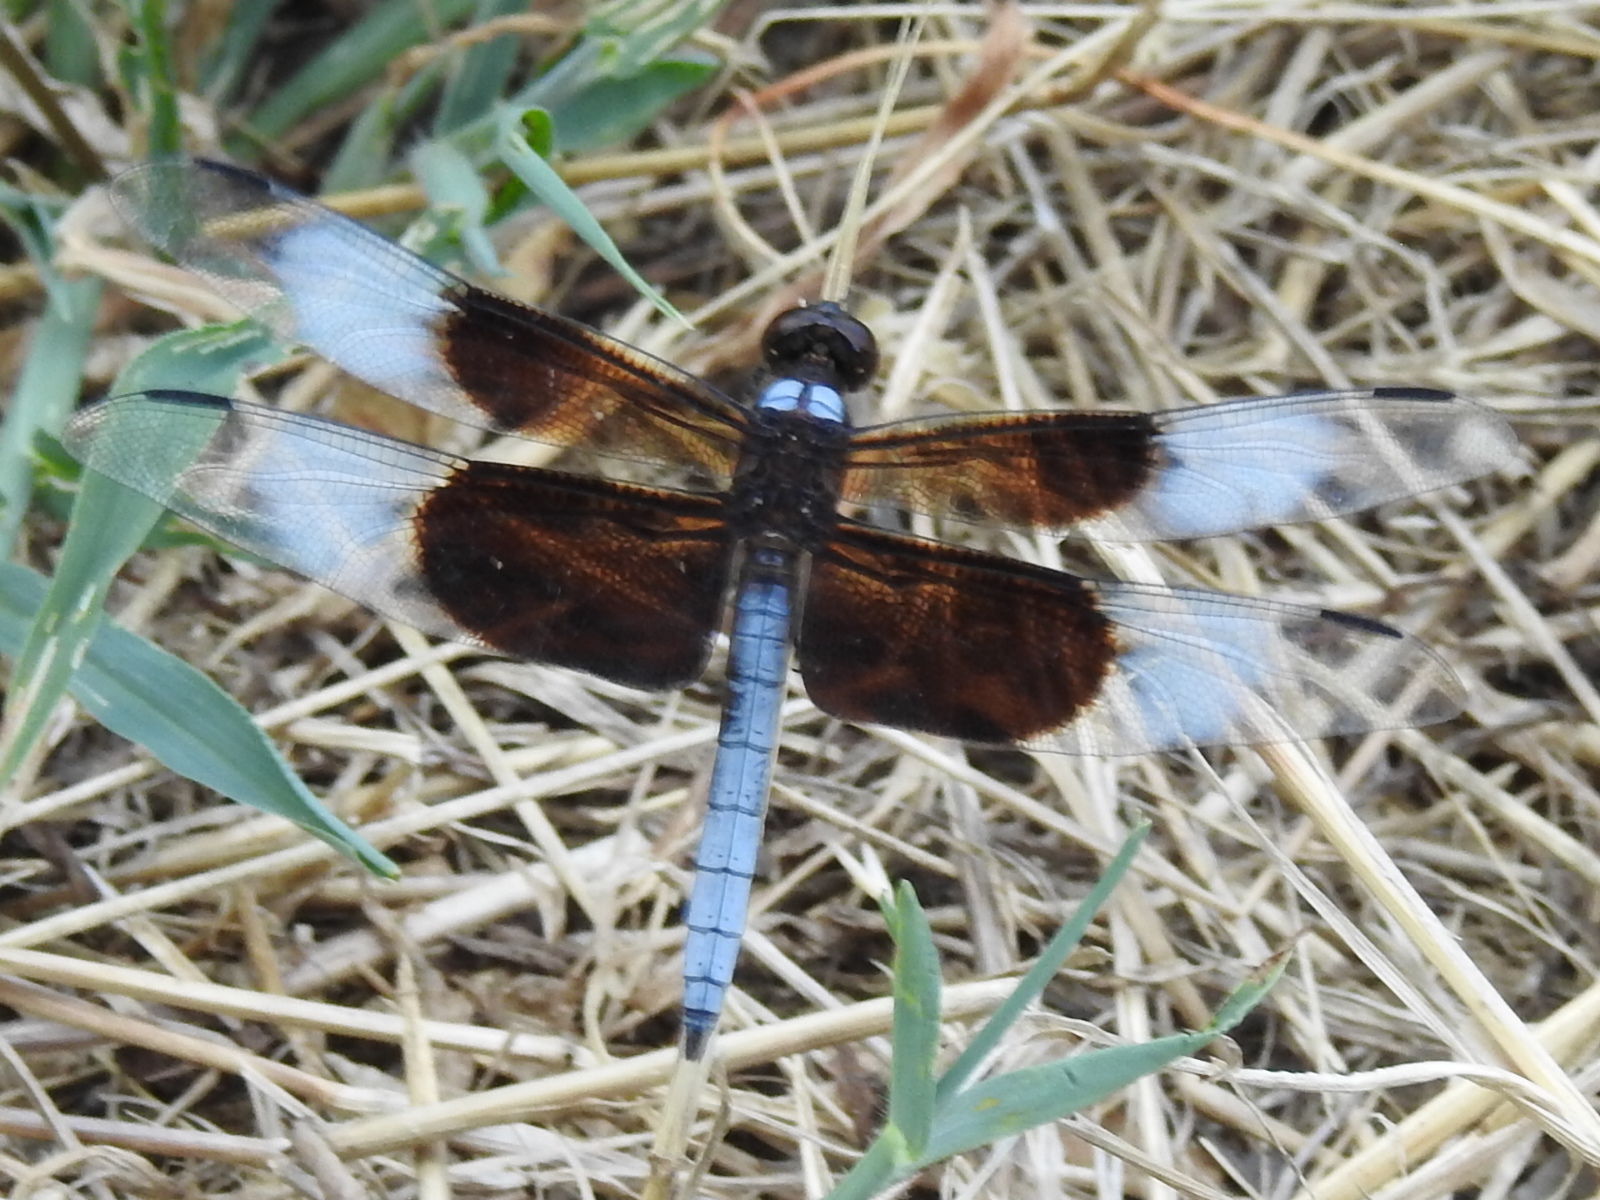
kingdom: Animalia
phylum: Arthropoda
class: Insecta
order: Odonata
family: Libellulidae
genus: Libellula
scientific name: Libellula luctuosa
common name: Widow skimmer
